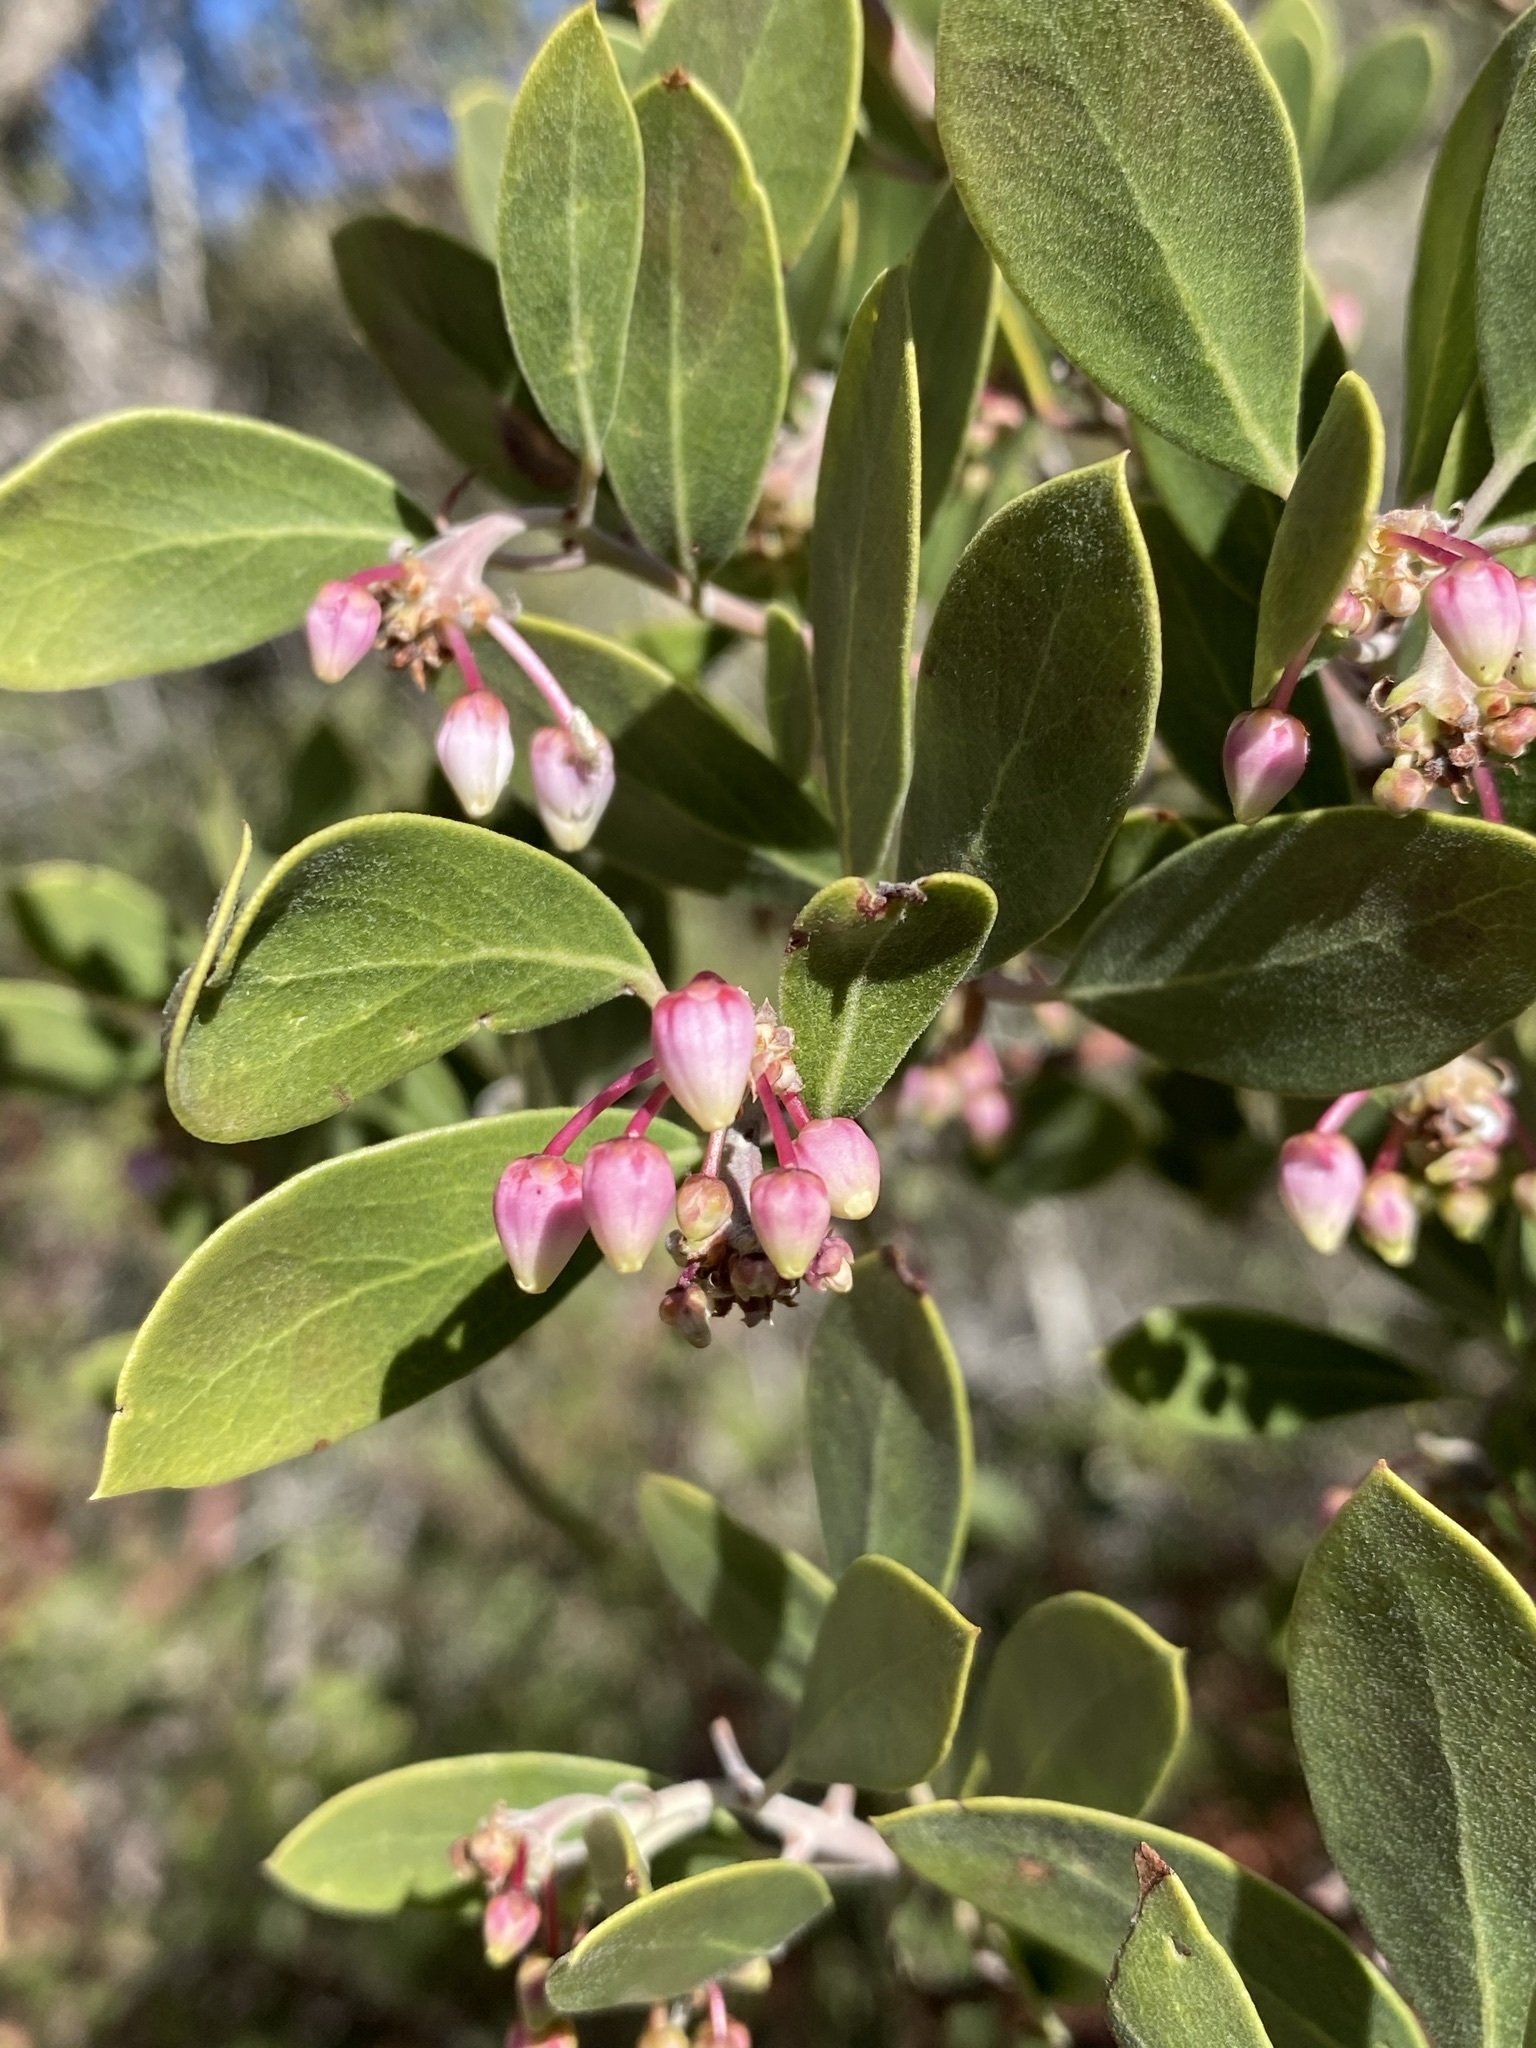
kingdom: Plantae
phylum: Tracheophyta
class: Magnoliopsida
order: Ericales
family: Ericaceae
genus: Arctostaphylos
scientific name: Arctostaphylos pungens
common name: Mexican manzanita
